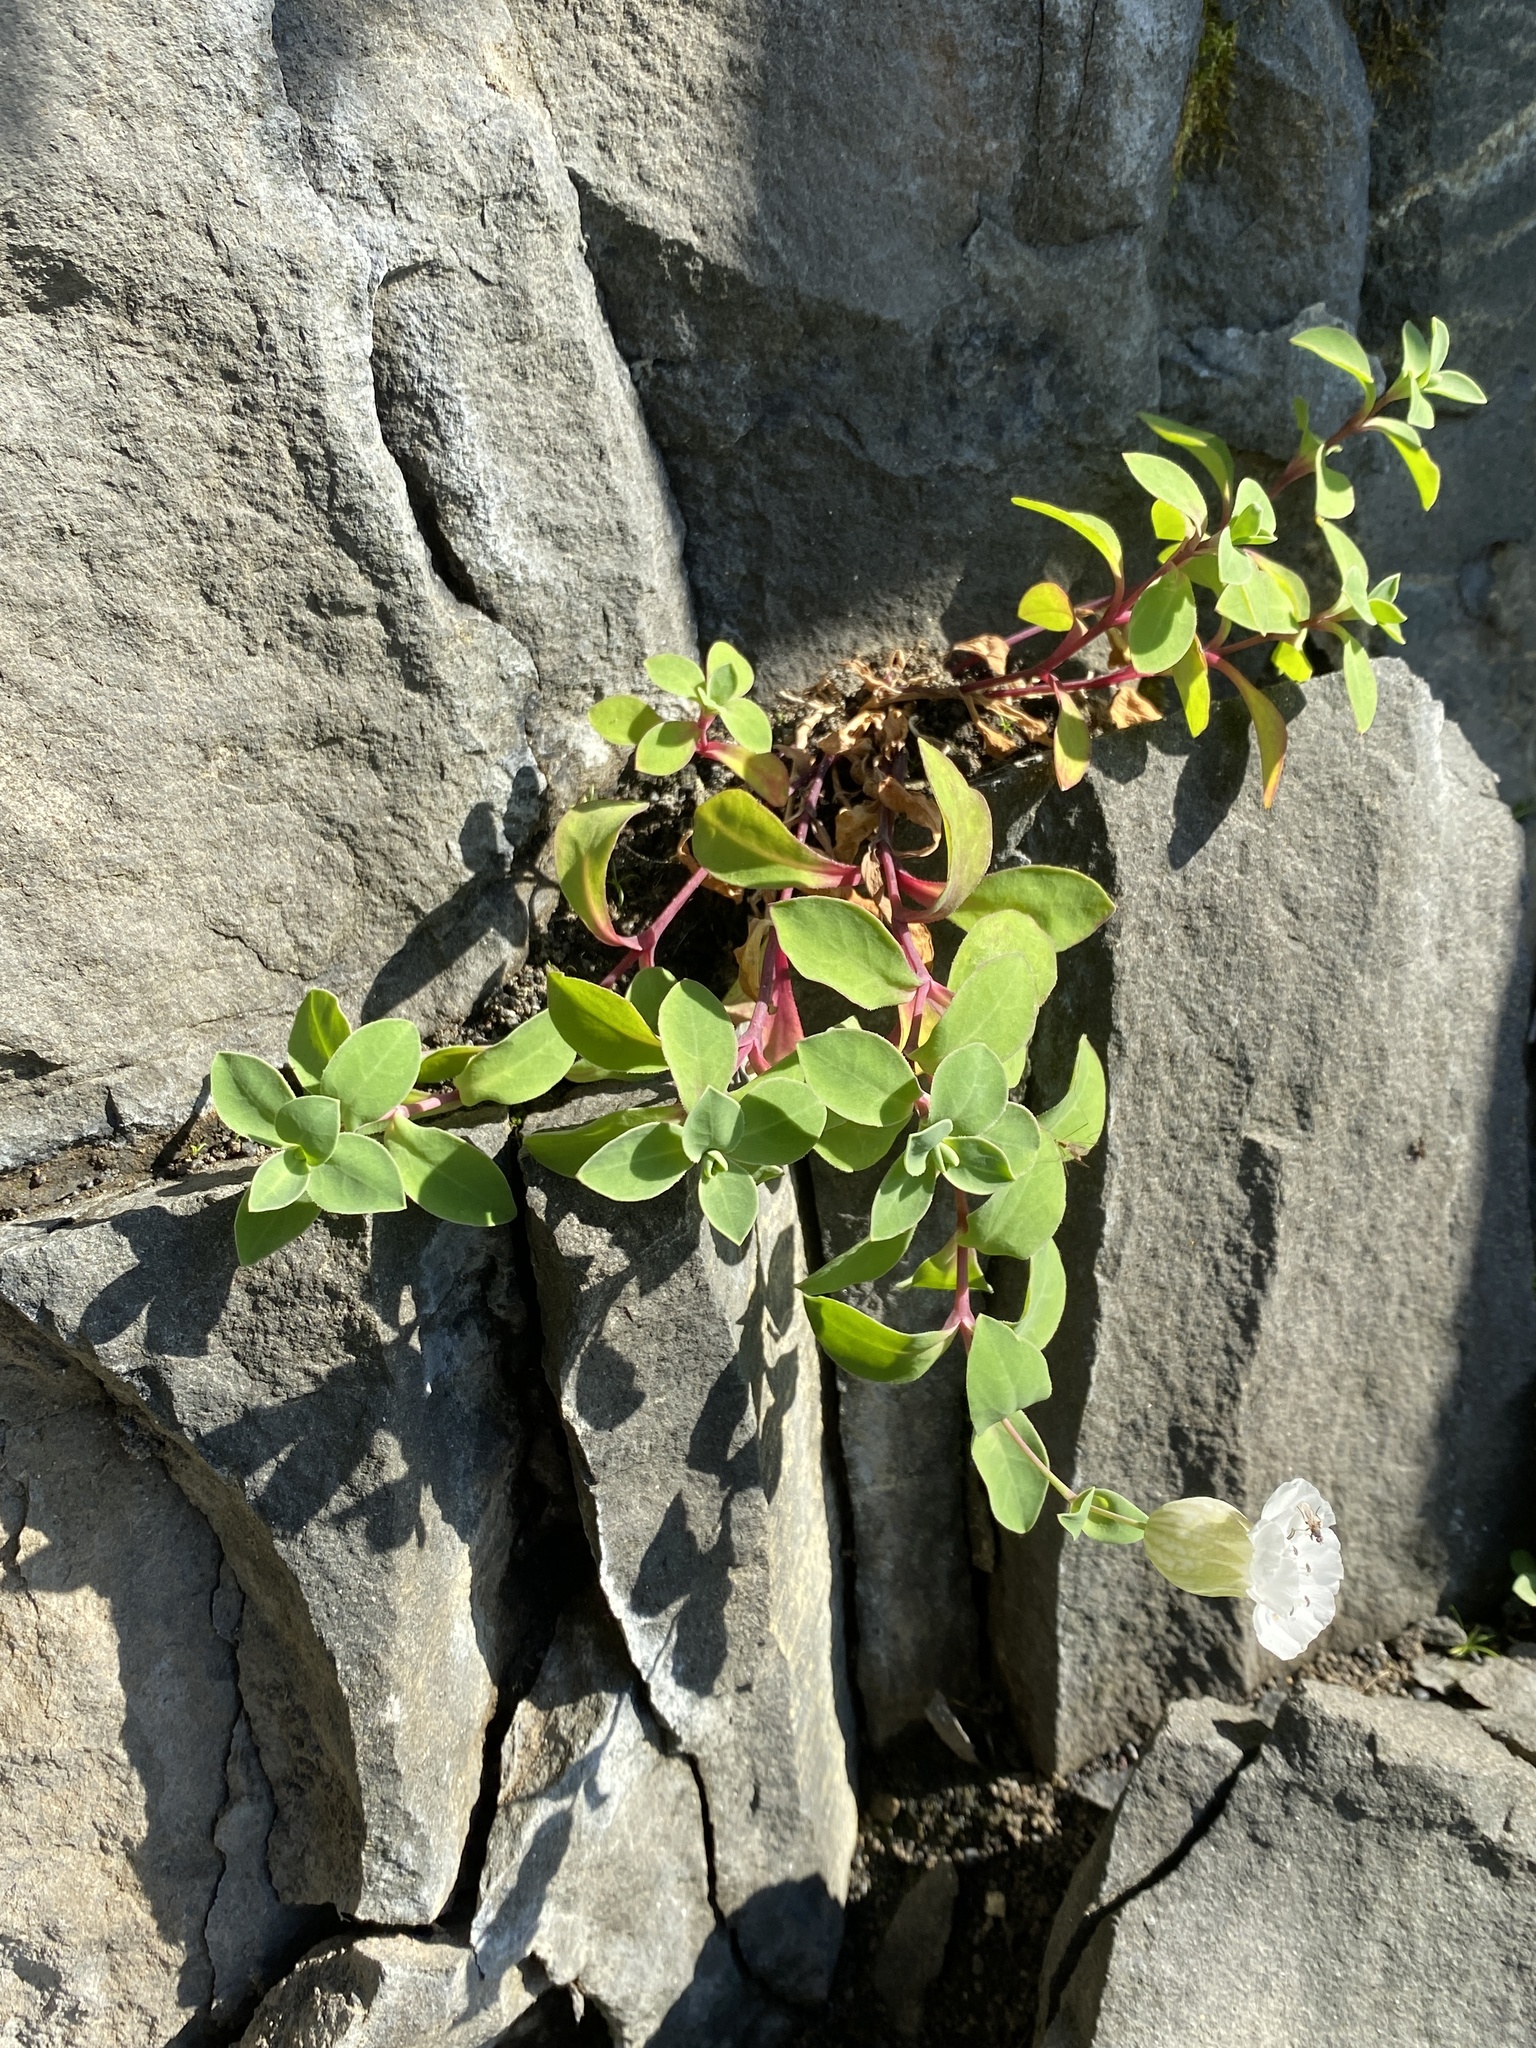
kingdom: Plantae
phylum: Tracheophyta
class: Magnoliopsida
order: Caryophyllales
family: Caryophyllaceae
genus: Silene
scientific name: Silene uniflora
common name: Sea campion
